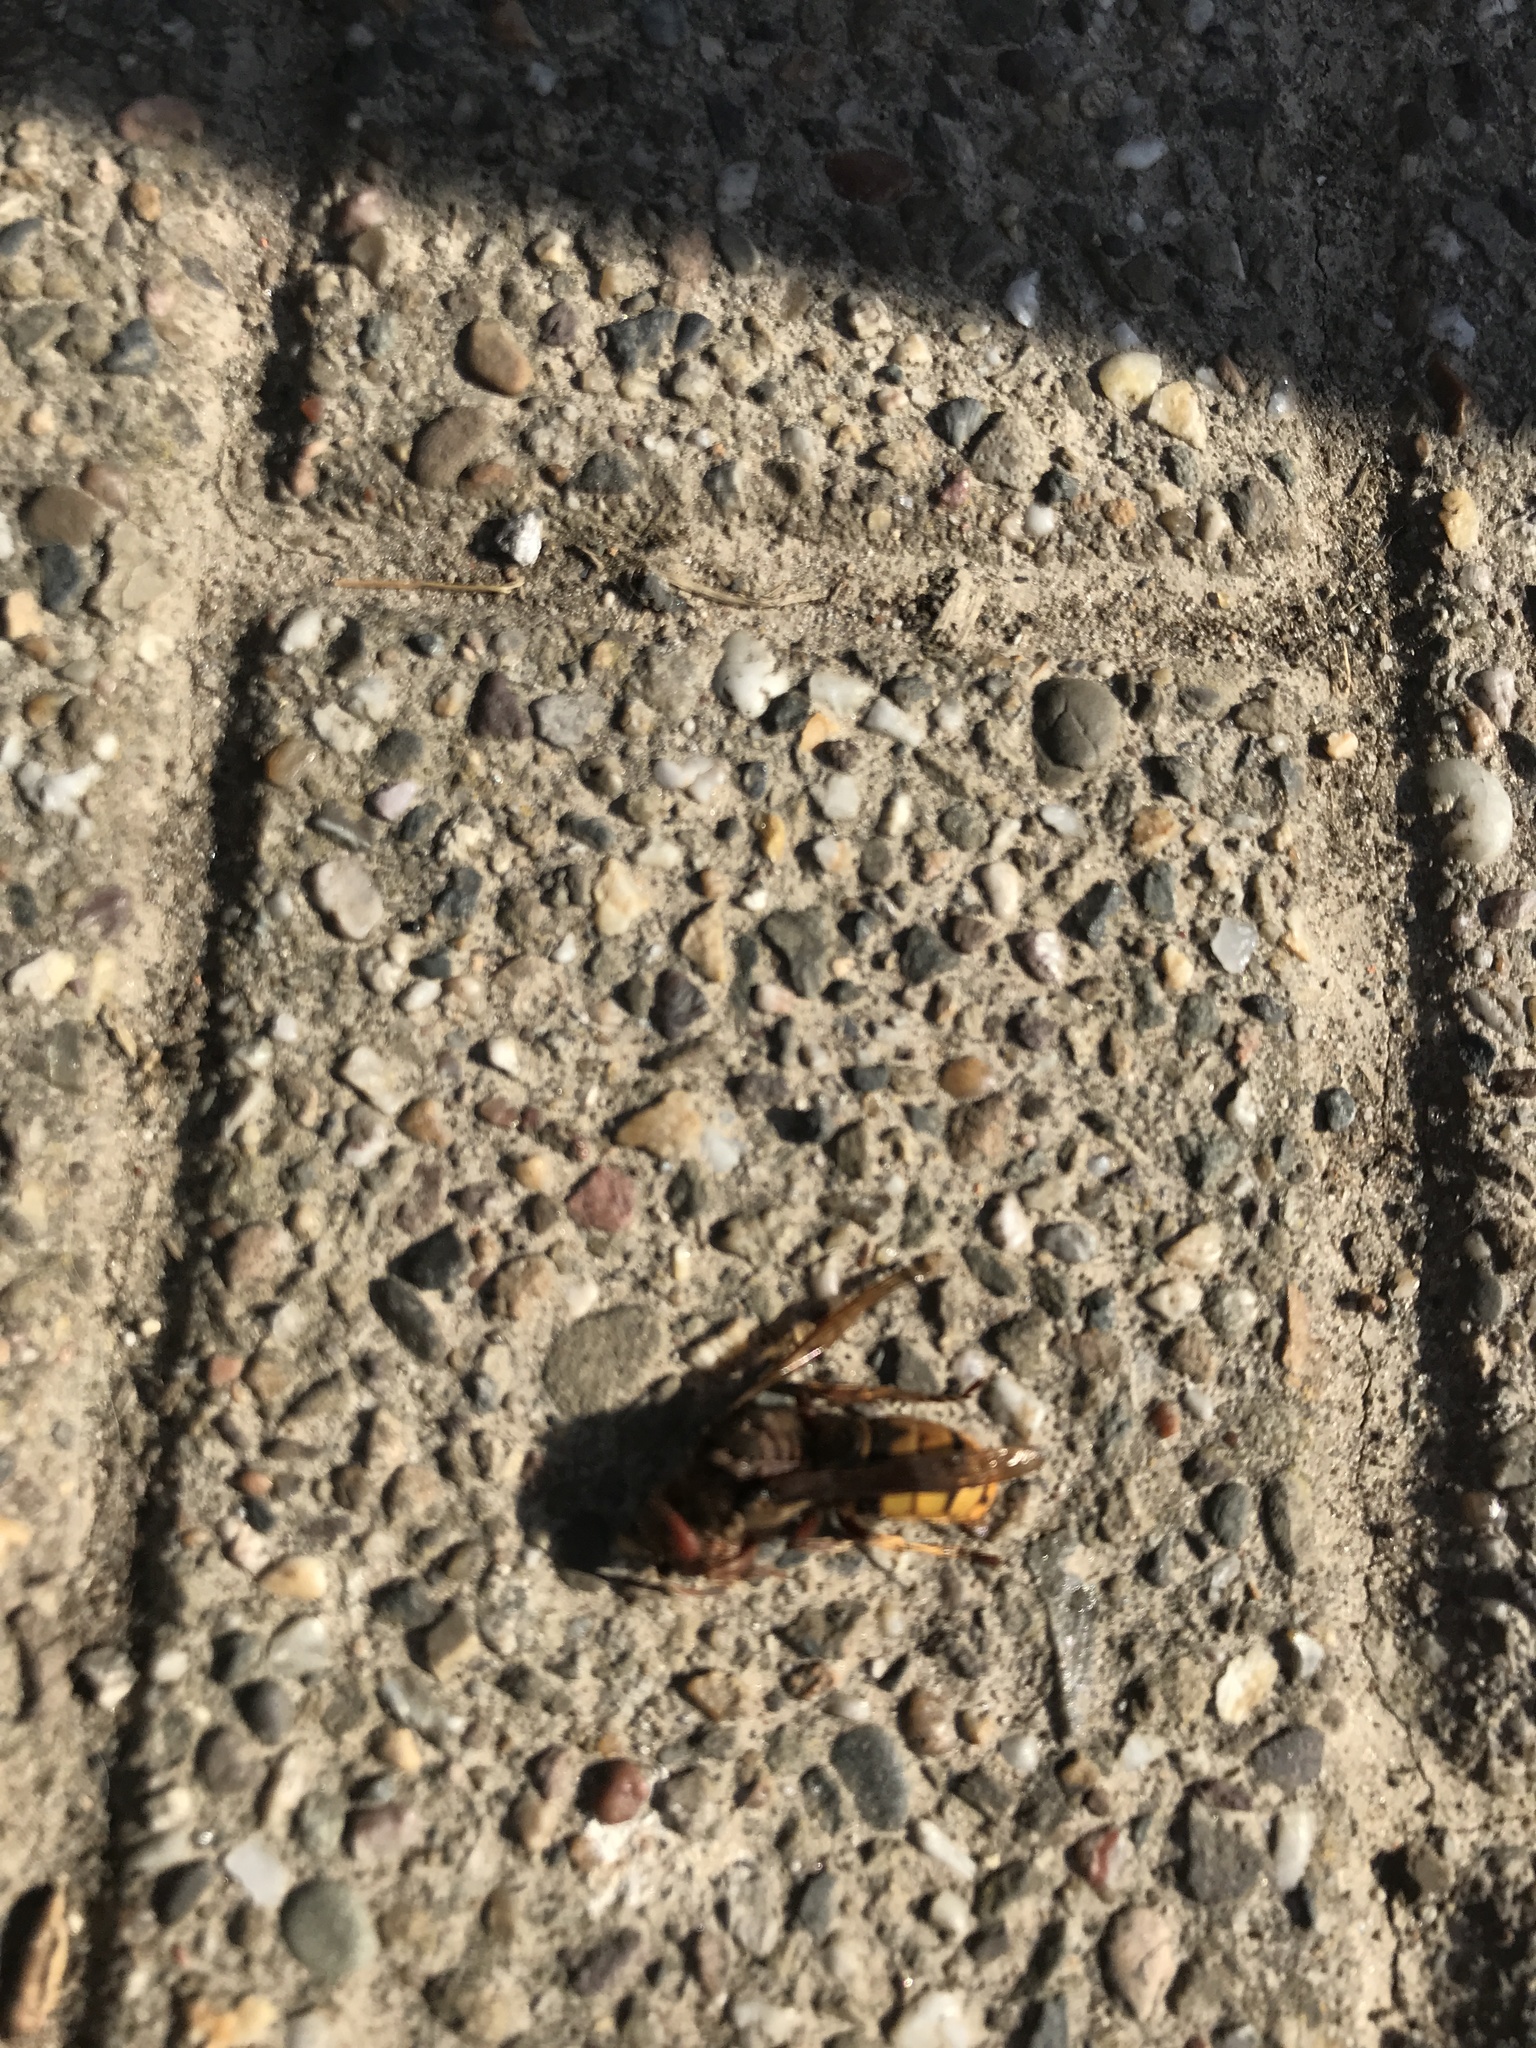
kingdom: Animalia
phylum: Arthropoda
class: Insecta
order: Hymenoptera
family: Vespidae
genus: Vespa
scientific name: Vespa crabro
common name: Hornet
